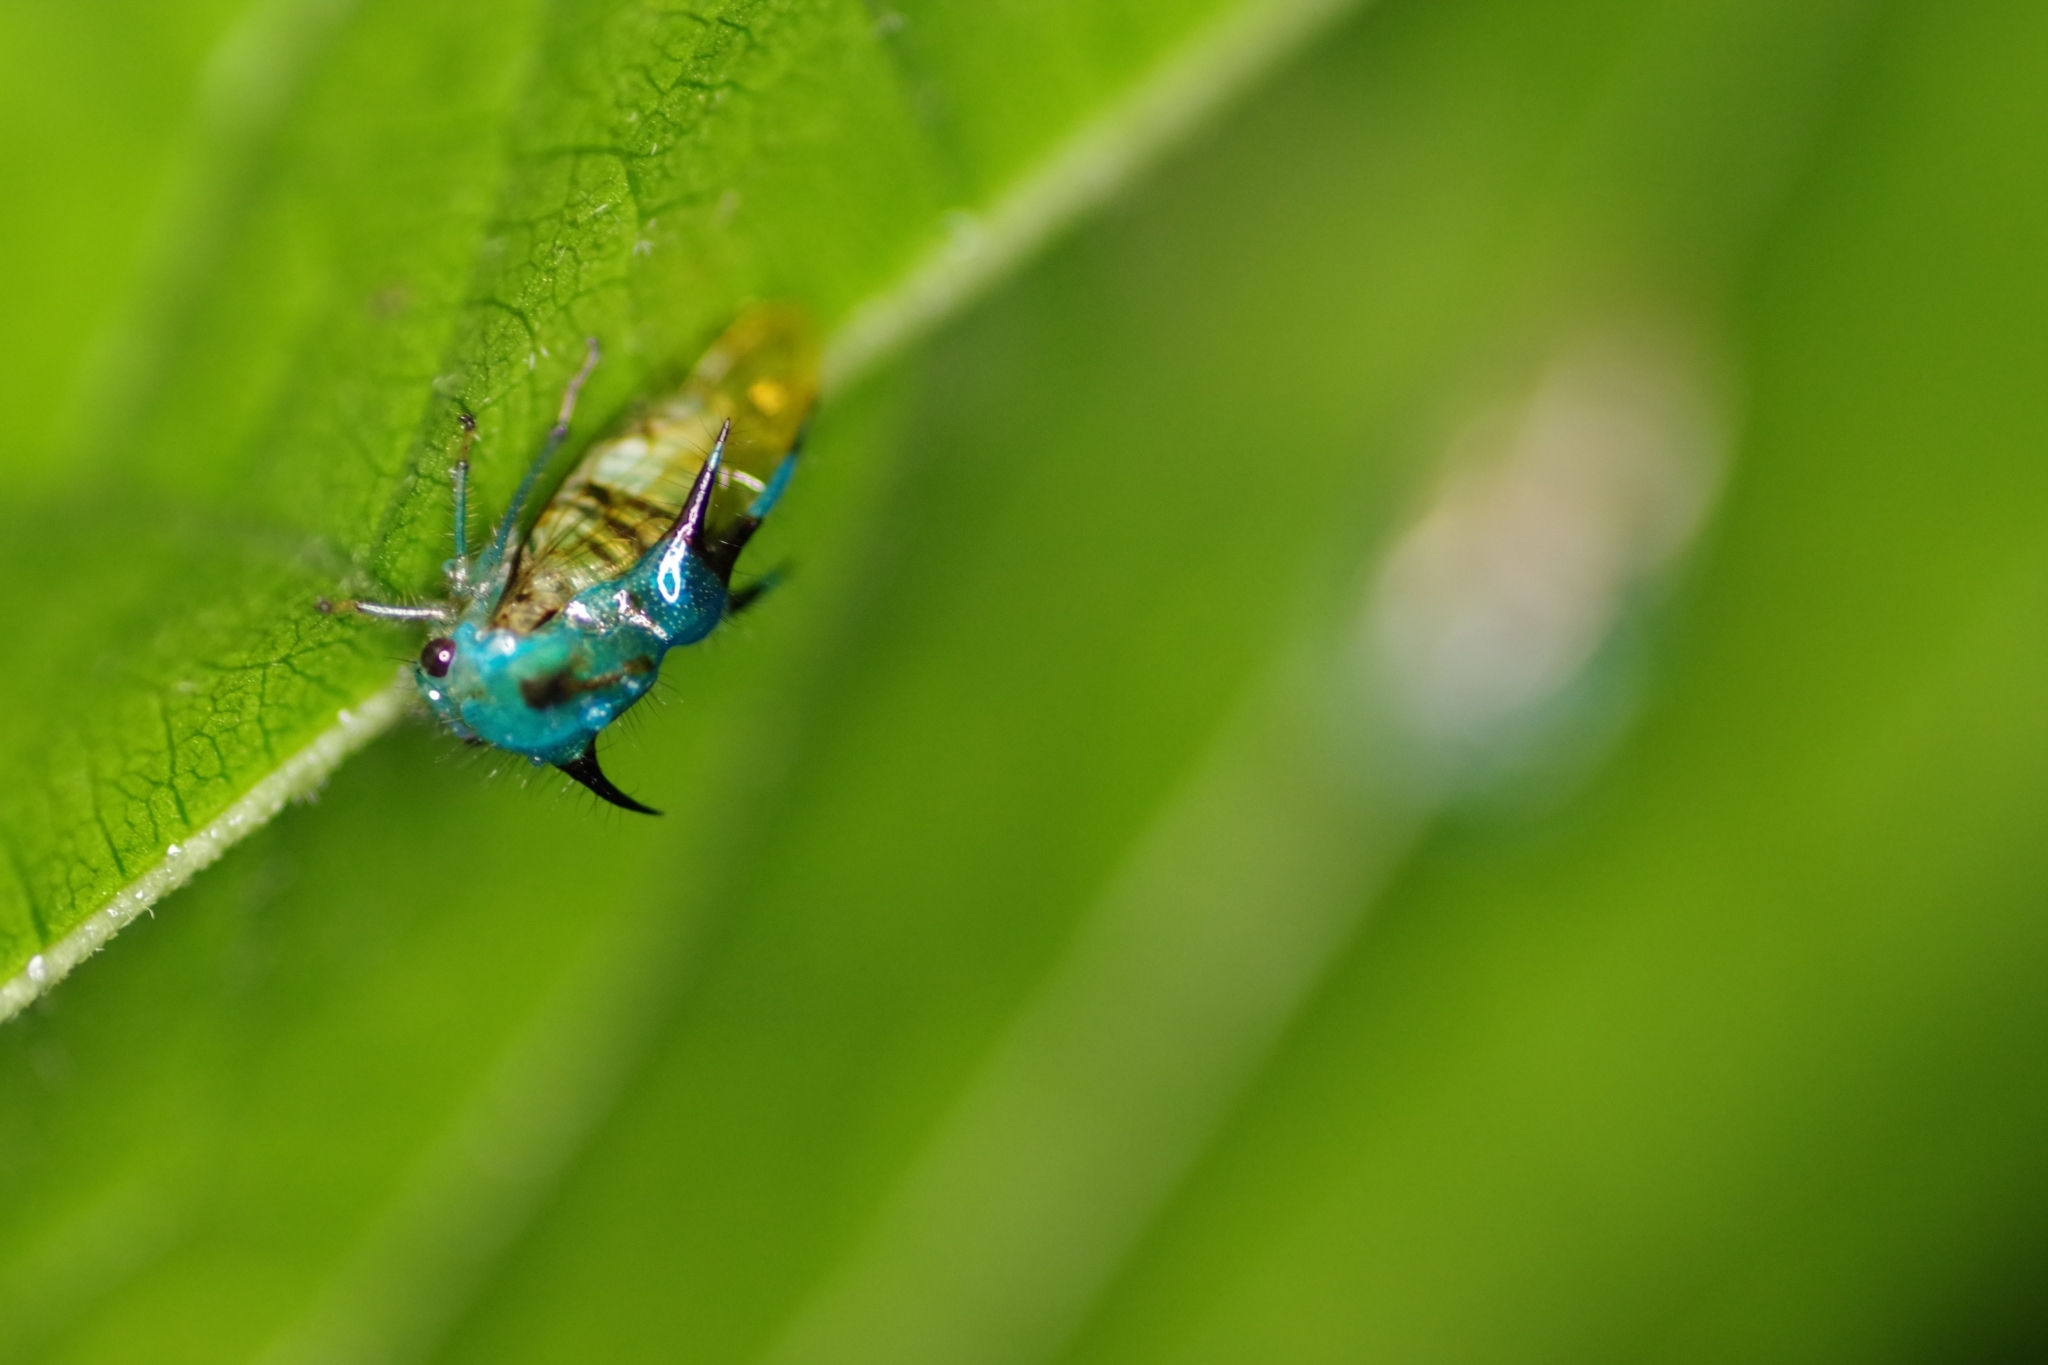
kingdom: Animalia
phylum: Arthropoda
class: Insecta
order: Hemiptera
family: Membracidae
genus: Poppea
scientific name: Poppea formosa
